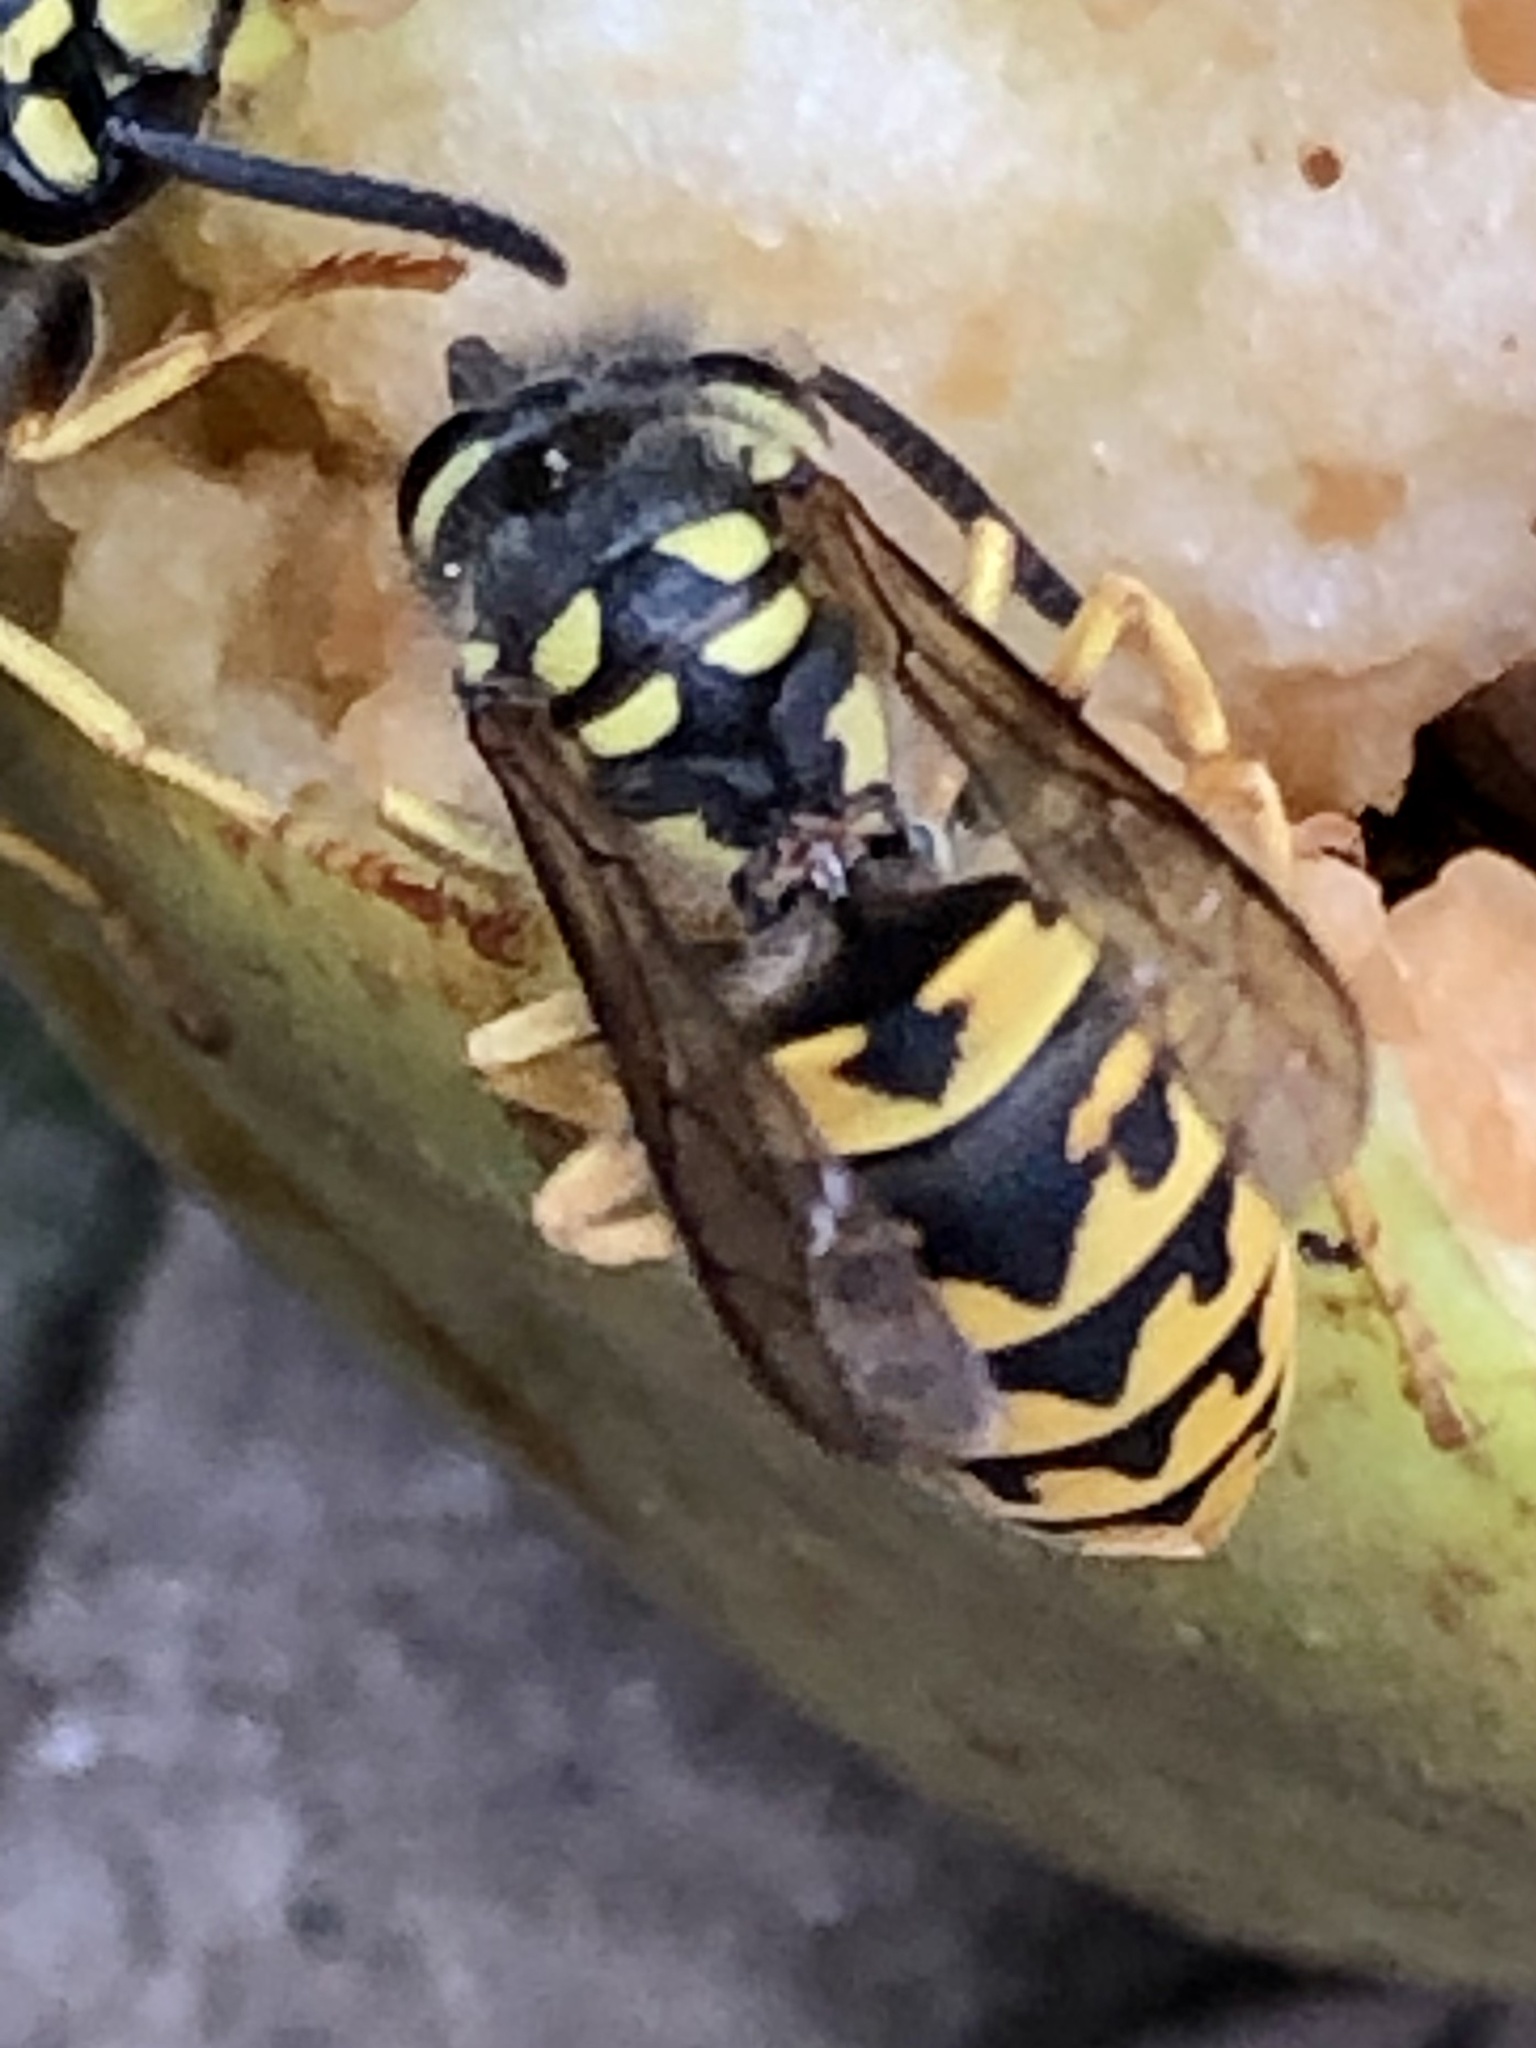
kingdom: Animalia
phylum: Arthropoda
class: Insecta
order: Hymenoptera
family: Vespidae
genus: Vespula
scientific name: Vespula germanica
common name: German wasp
